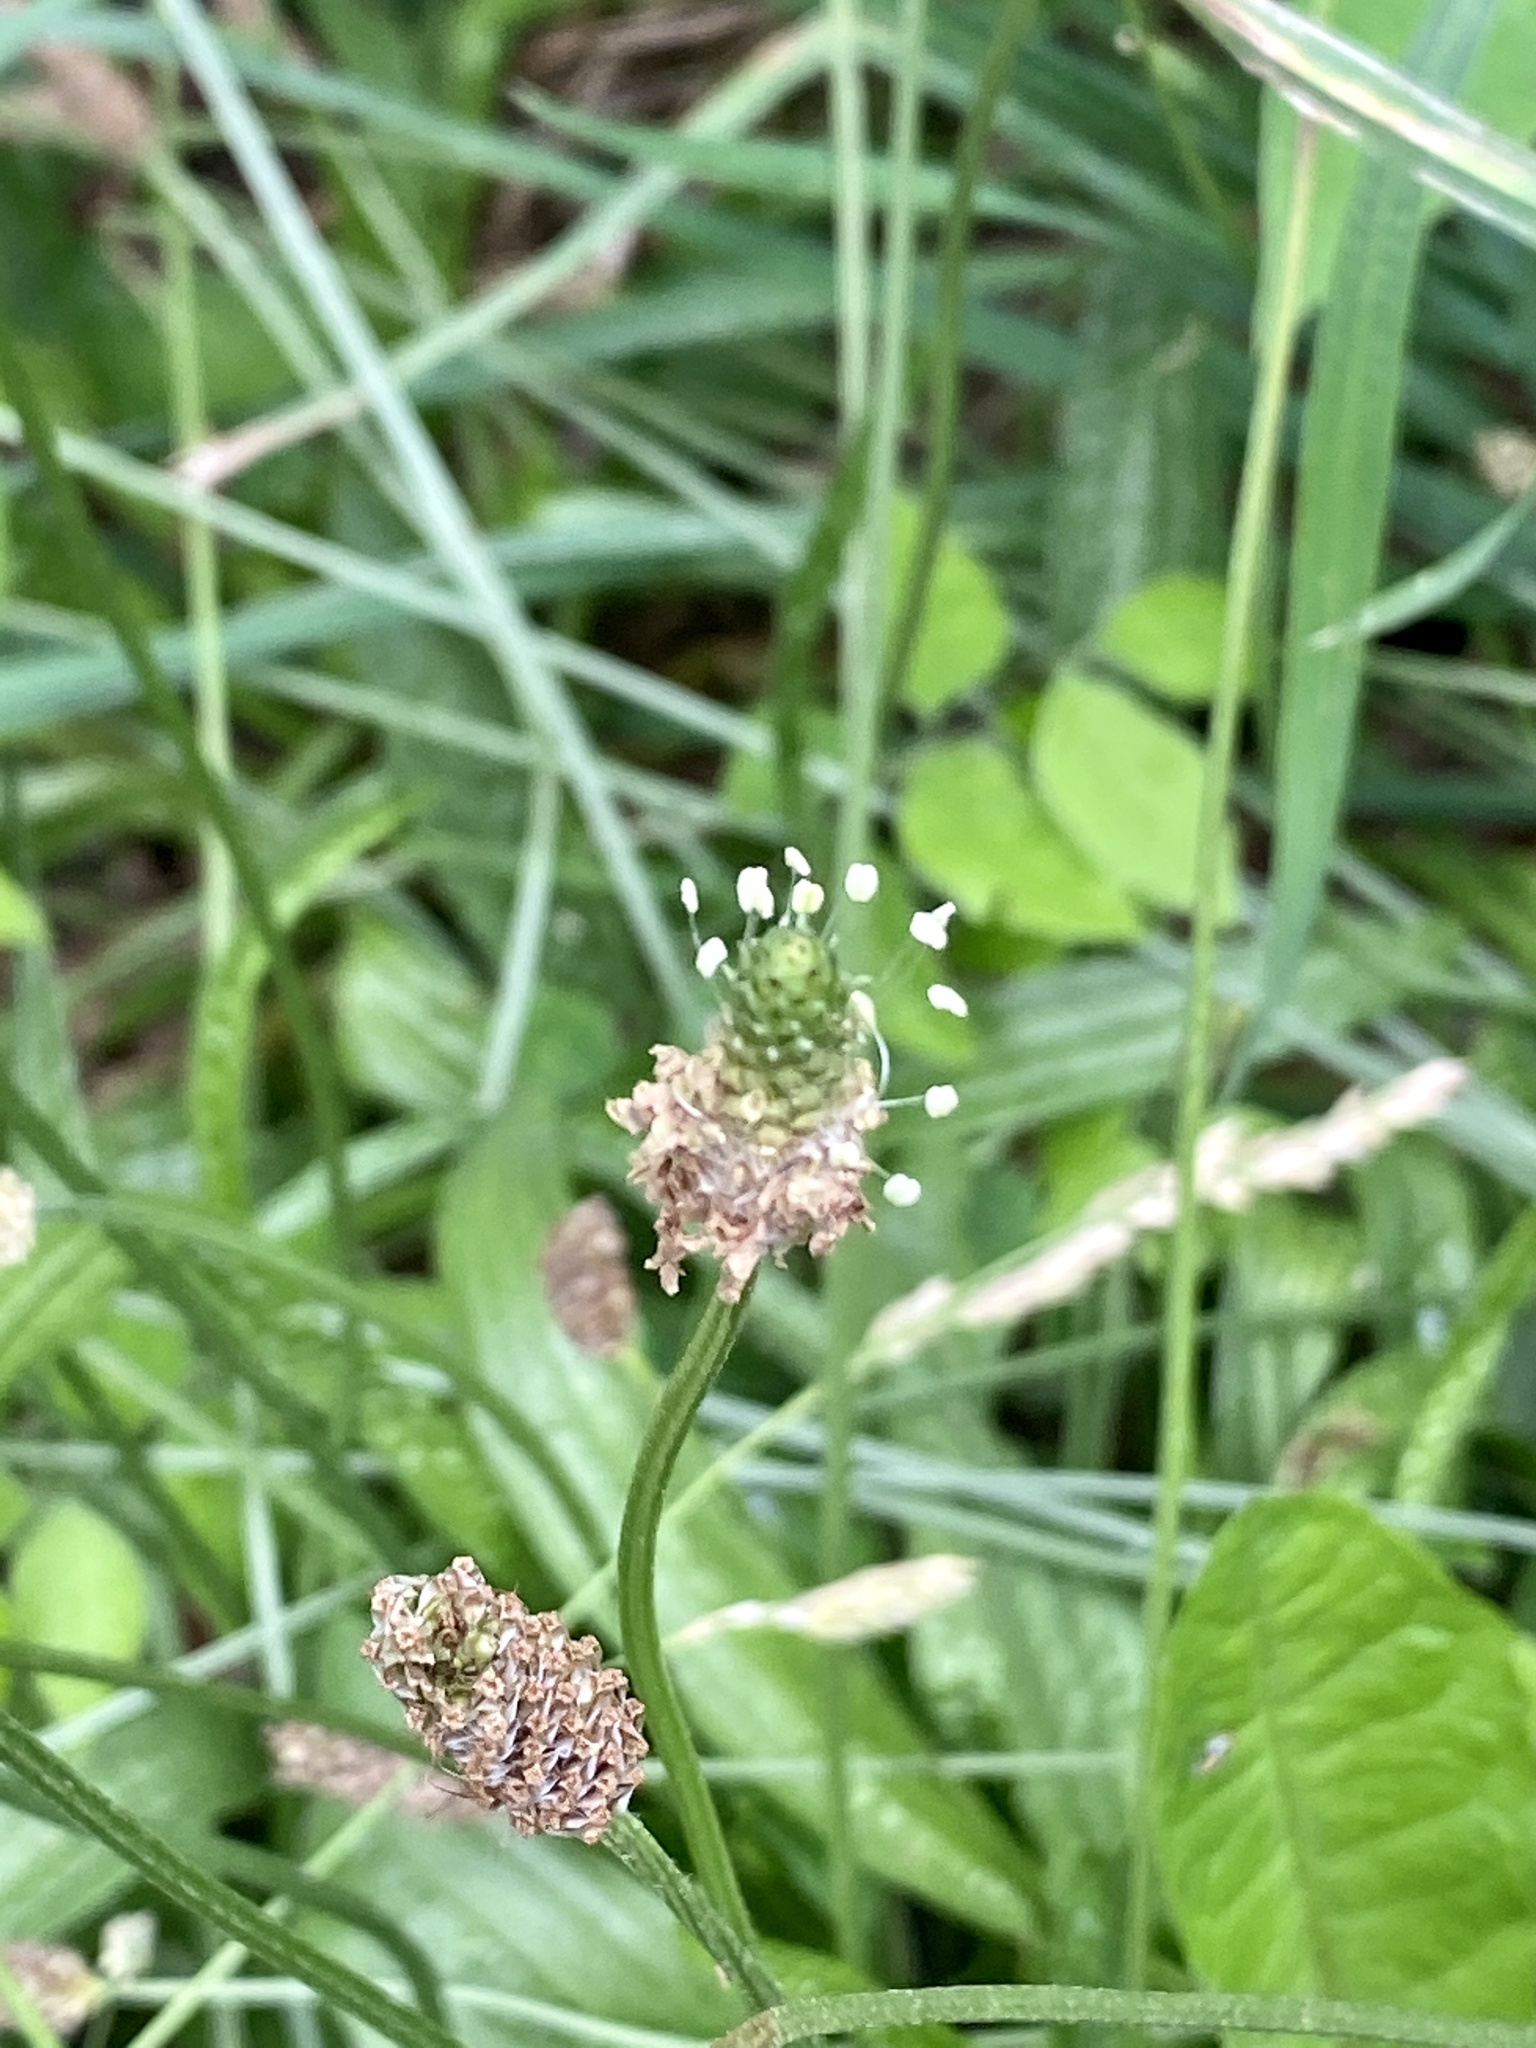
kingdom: Plantae
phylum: Tracheophyta
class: Magnoliopsida
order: Lamiales
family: Plantaginaceae
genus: Plantago
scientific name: Plantago lanceolata
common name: Ribwort plantain
